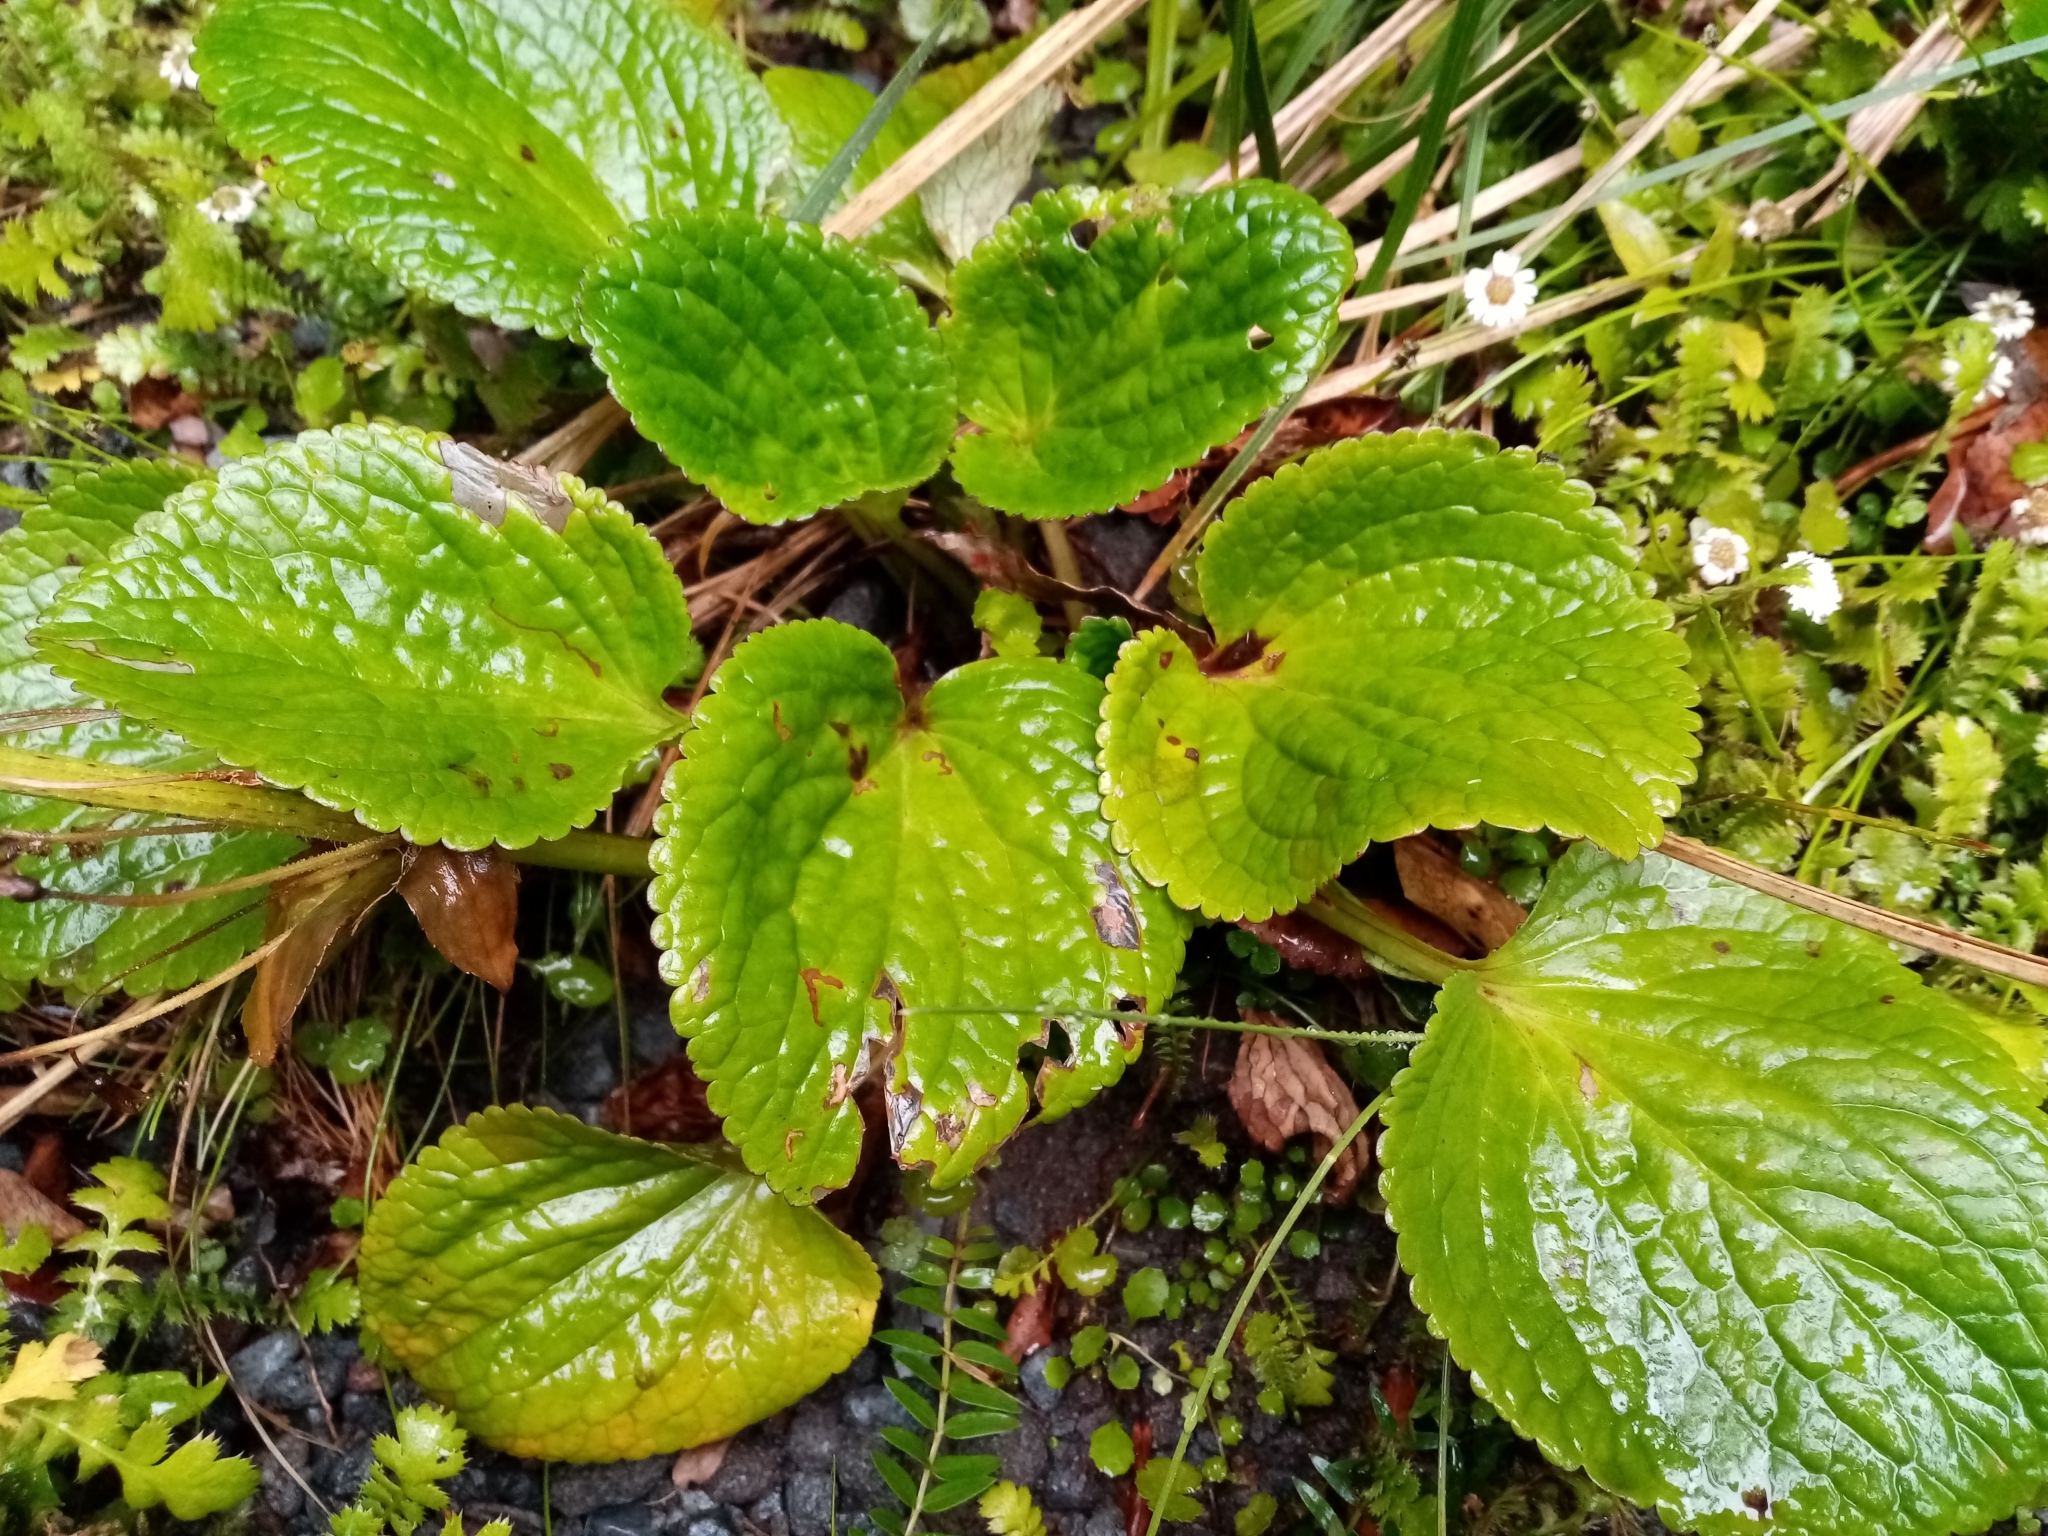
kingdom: Plantae
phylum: Tracheophyta
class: Magnoliopsida
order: Lamiales
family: Plantaginaceae
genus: Ourisia
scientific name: Ourisia macrophylla
